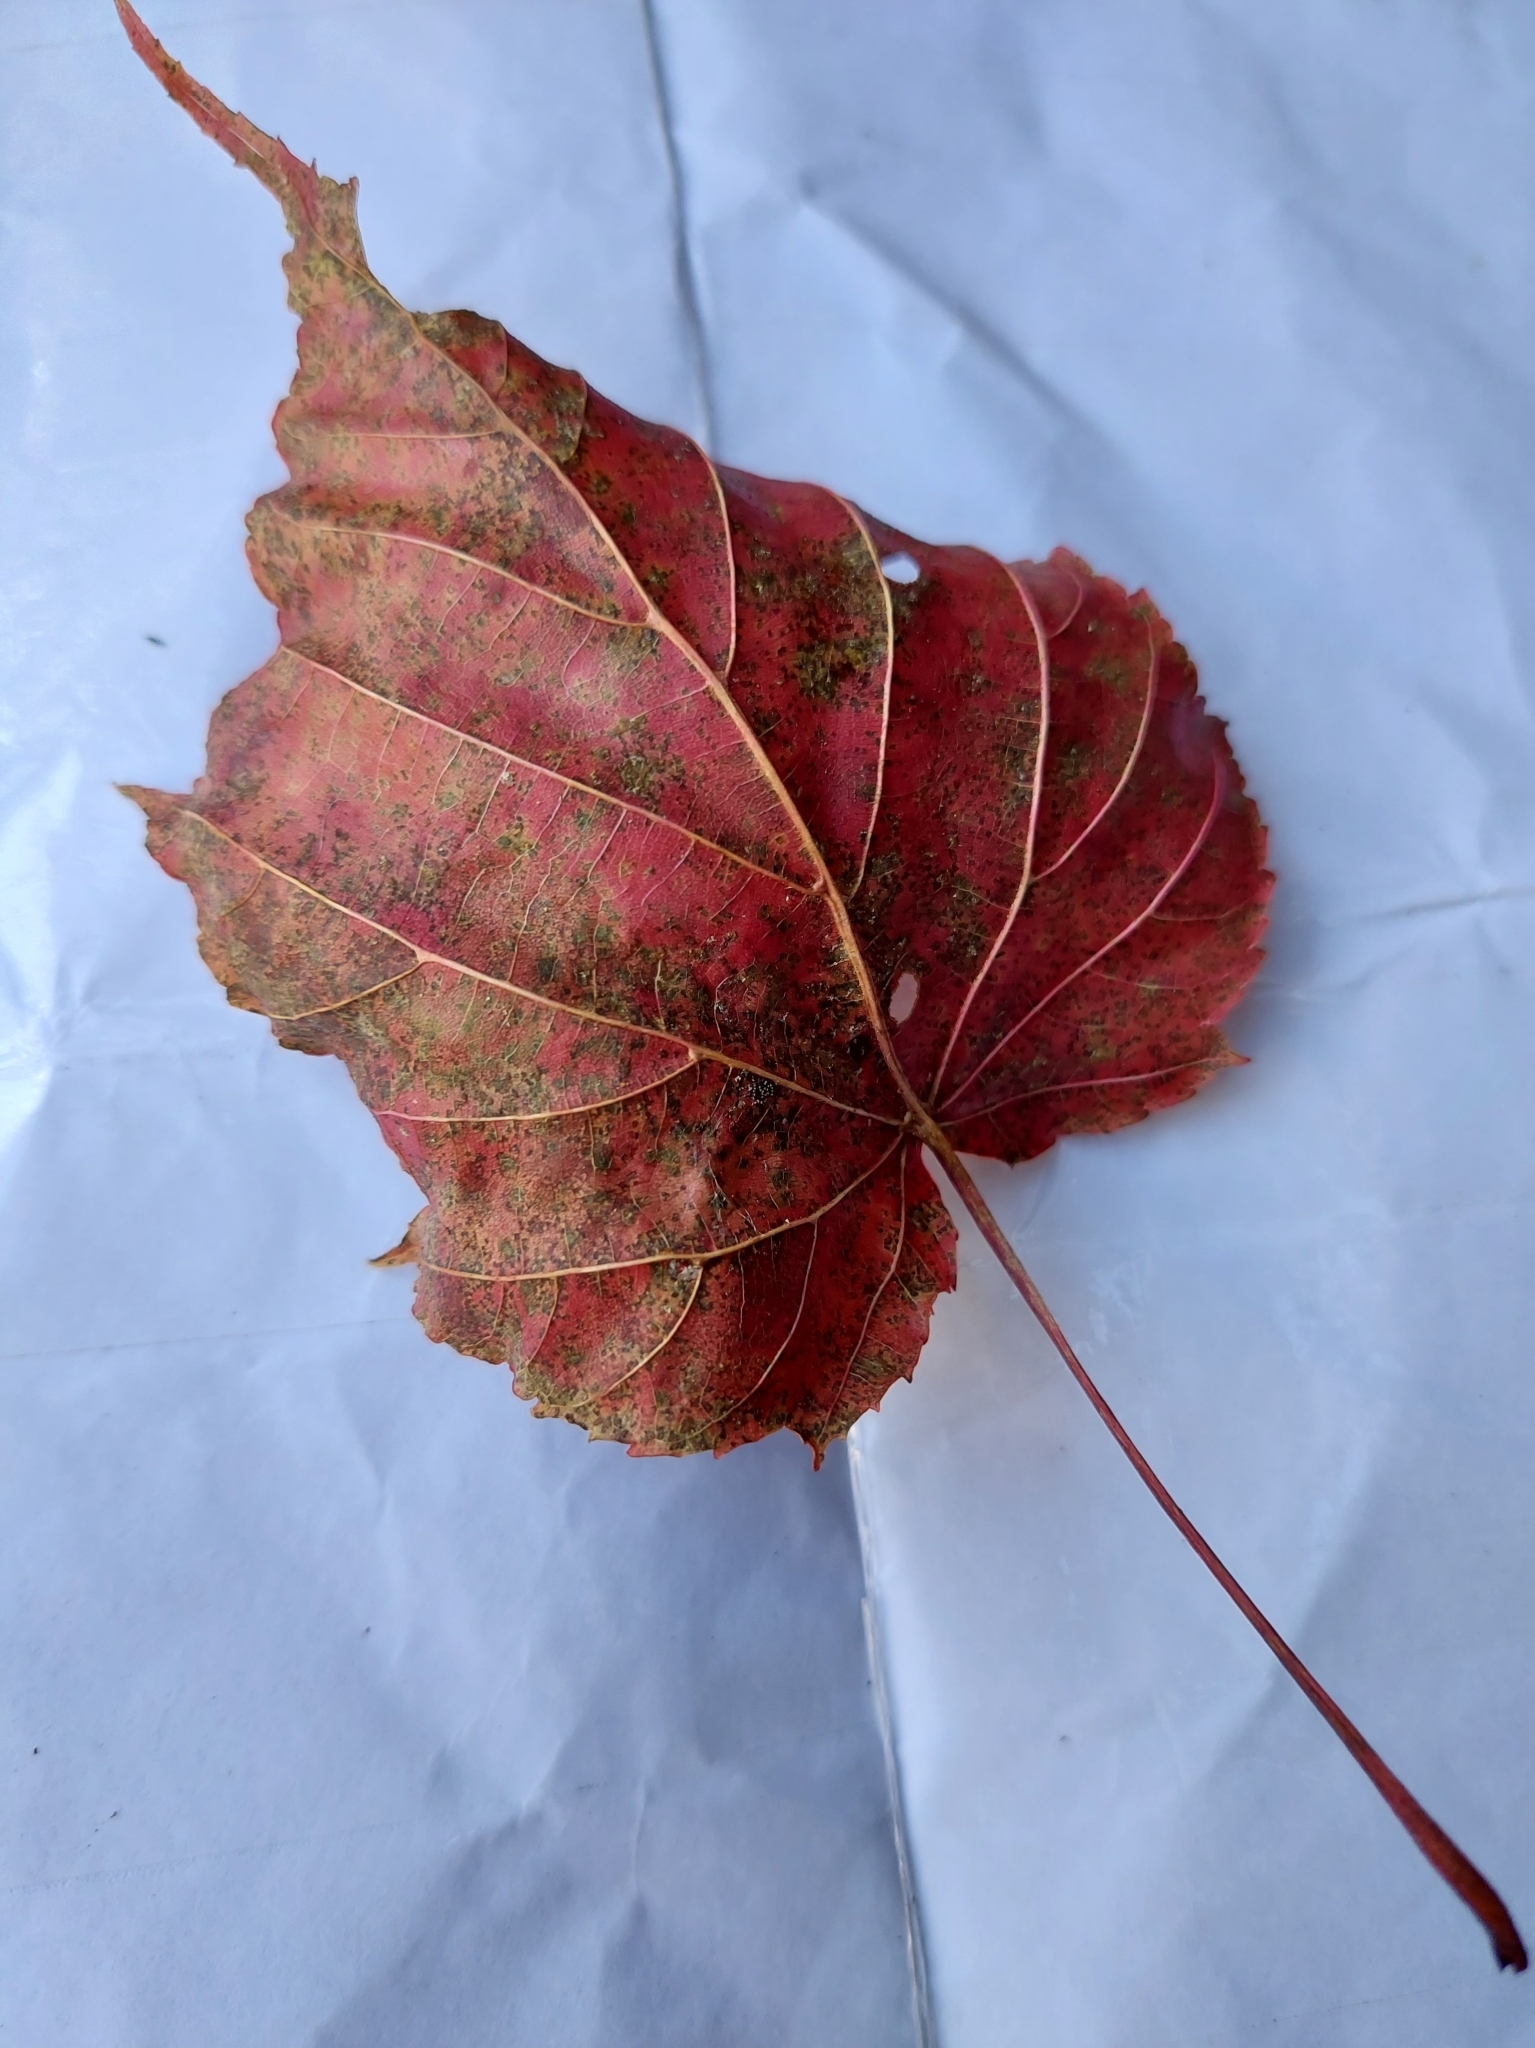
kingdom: Plantae
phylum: Tracheophyta
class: Magnoliopsida
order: Sapindales
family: Sapindaceae
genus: Acer
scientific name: Acer caudatifolium
